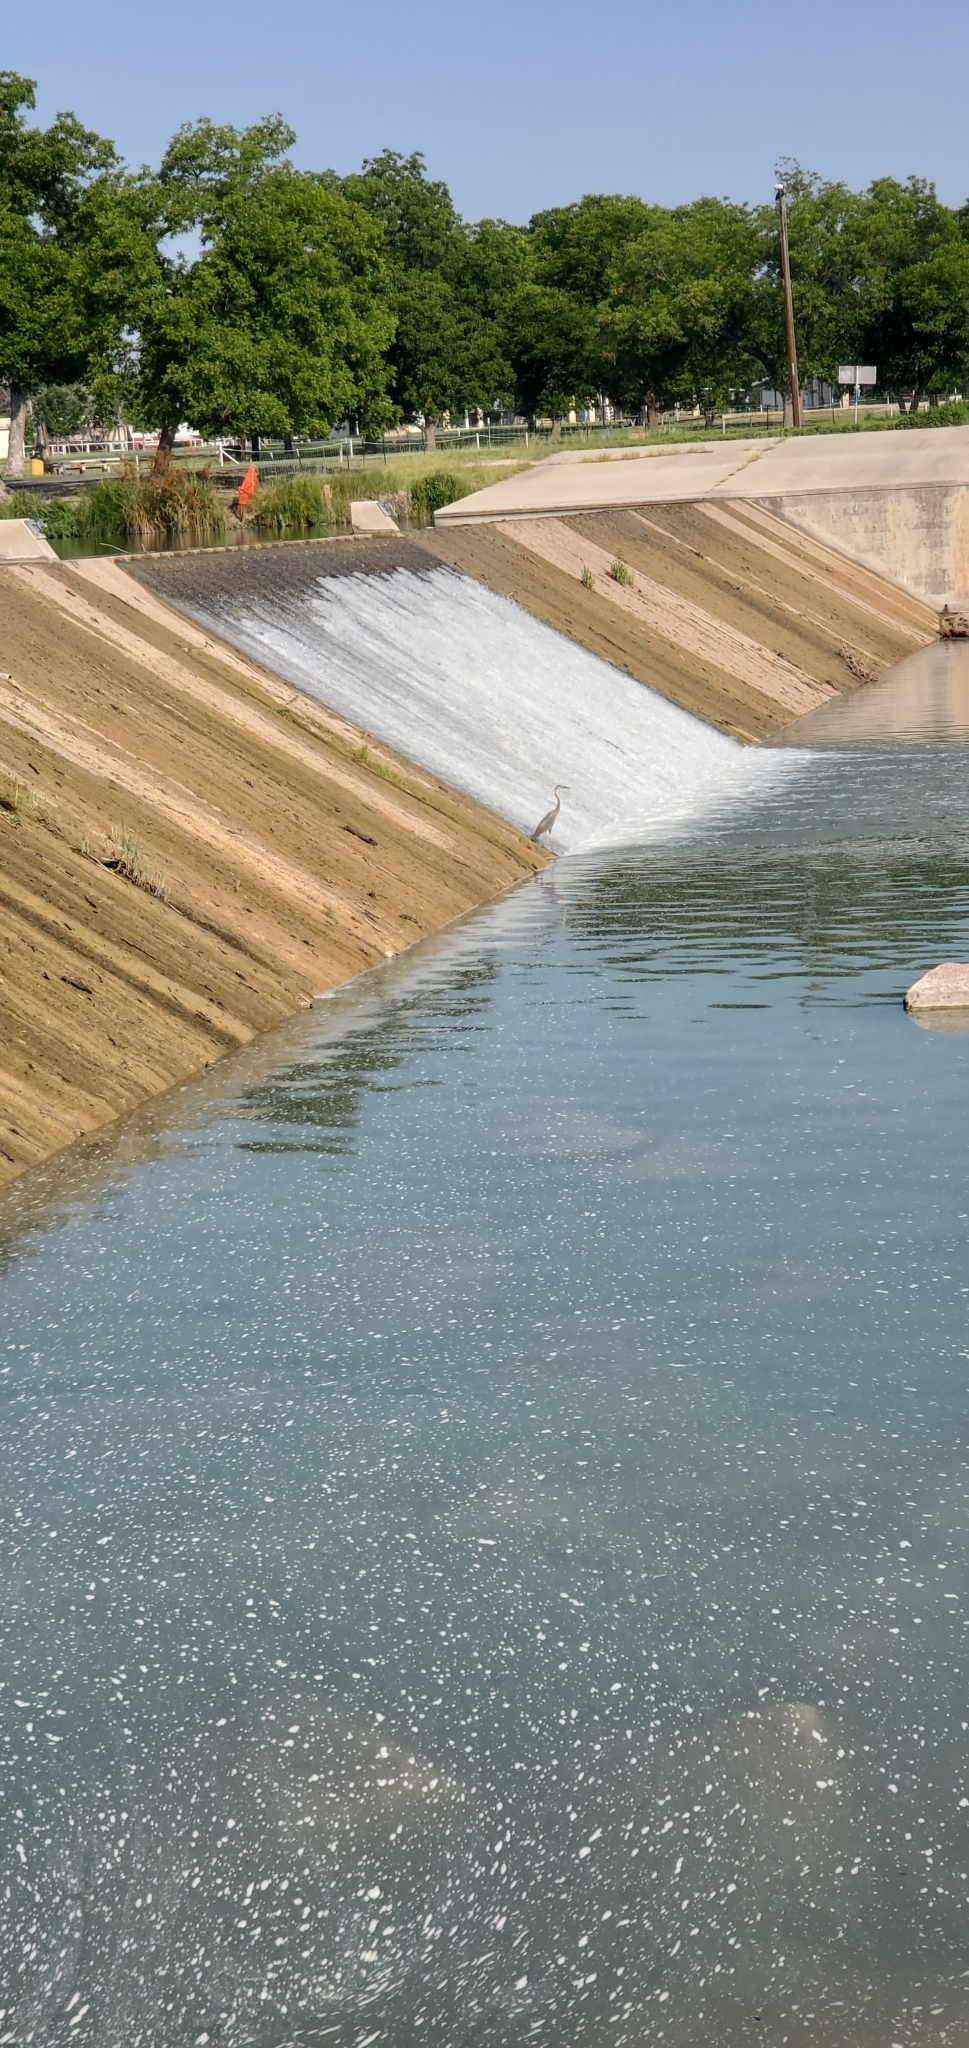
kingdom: Animalia
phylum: Chordata
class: Aves
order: Pelecaniformes
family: Ardeidae
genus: Ardea
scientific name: Ardea herodias
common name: Great blue heron
